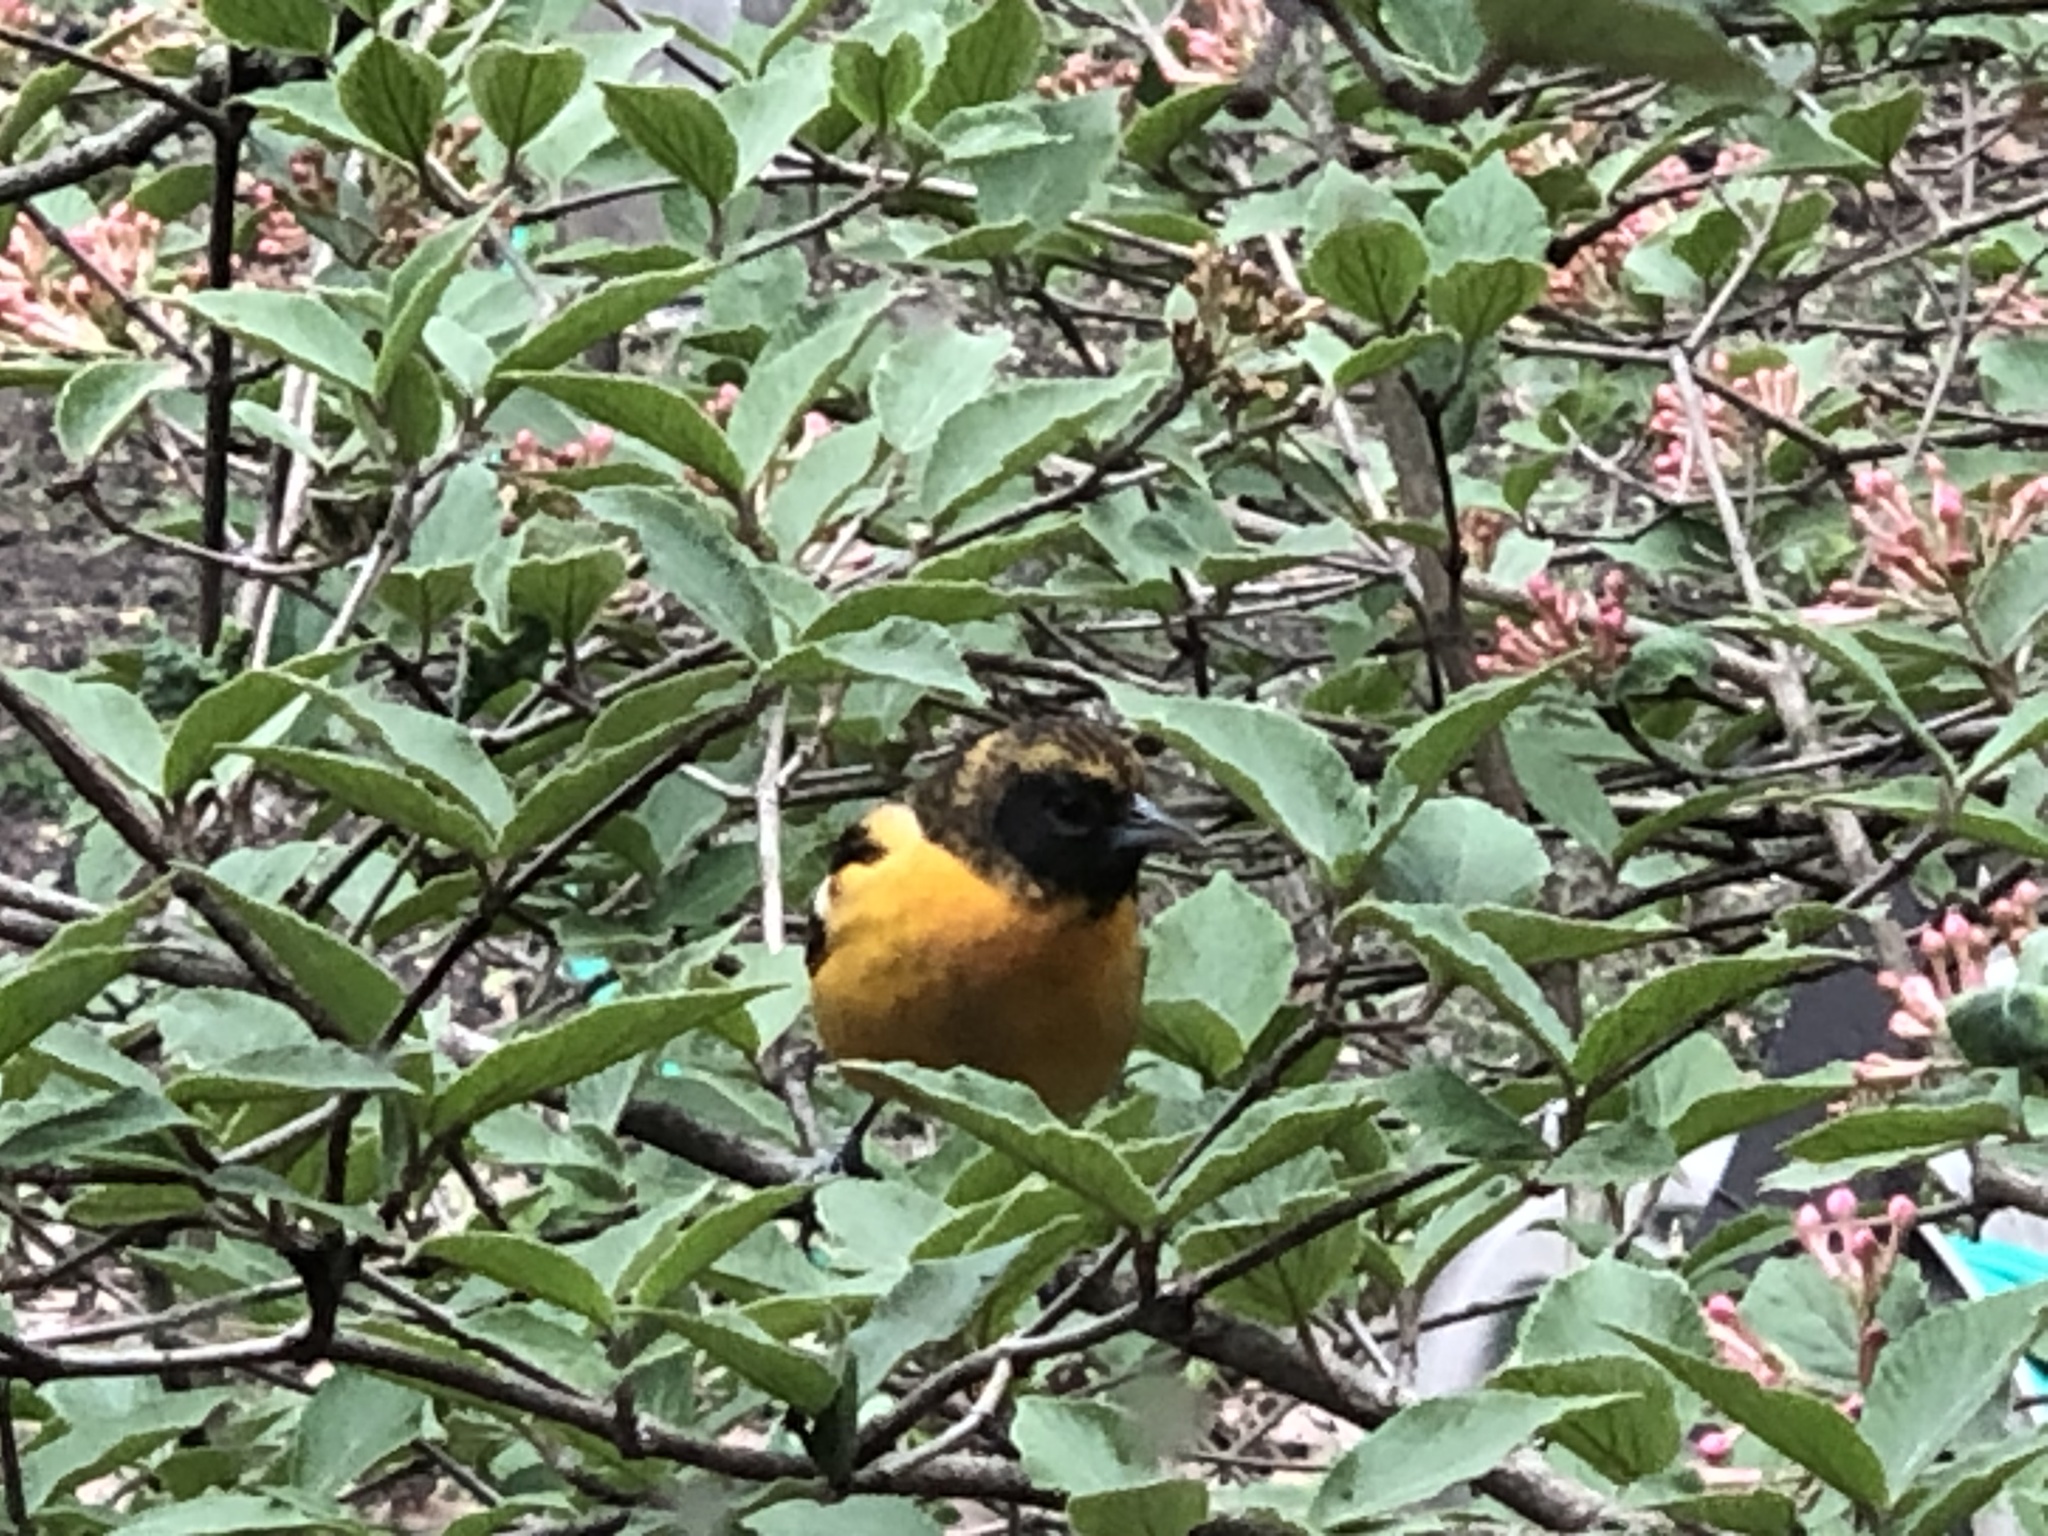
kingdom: Animalia
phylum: Chordata
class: Aves
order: Passeriformes
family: Icteridae
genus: Icterus
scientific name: Icterus galbula
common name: Baltimore oriole
